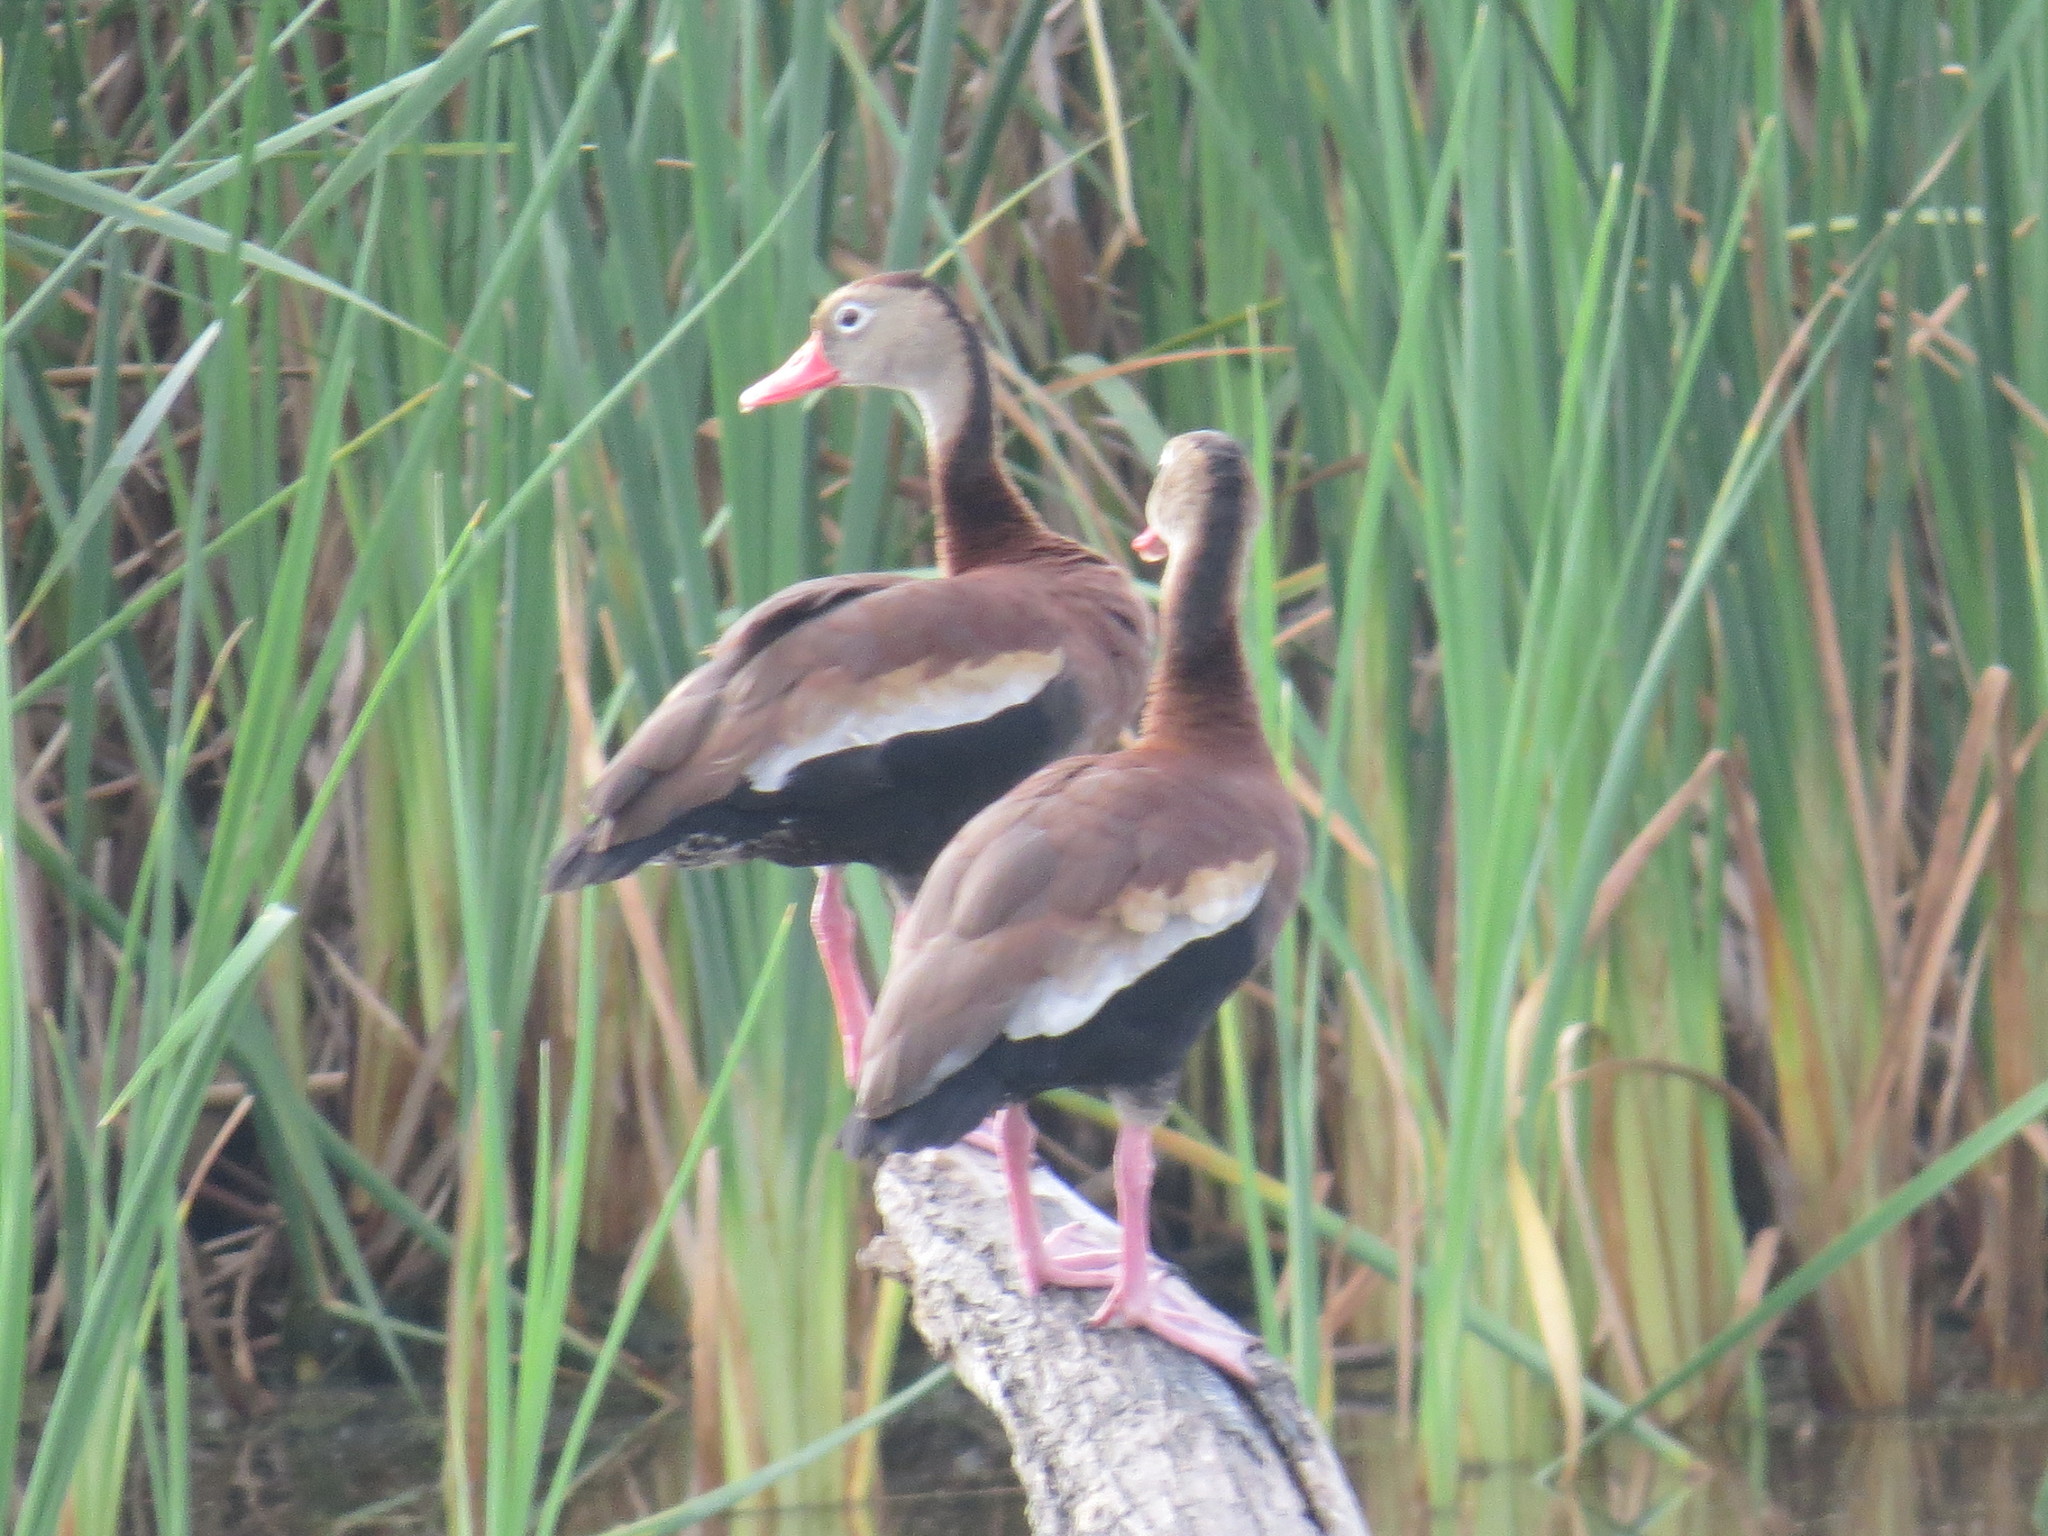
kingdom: Animalia
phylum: Chordata
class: Aves
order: Anseriformes
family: Anatidae
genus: Dendrocygna
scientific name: Dendrocygna autumnalis
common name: Black-bellied whistling duck
